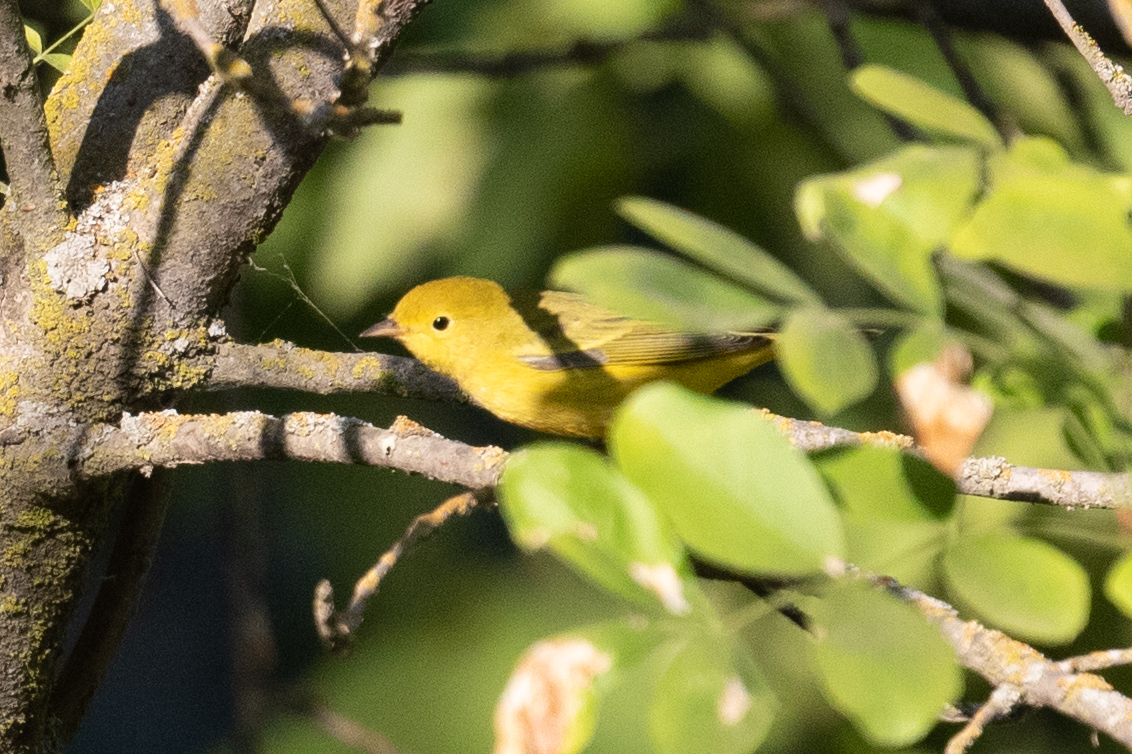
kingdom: Animalia
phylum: Chordata
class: Aves
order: Passeriformes
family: Parulidae
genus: Setophaga
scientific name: Setophaga petechia
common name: Yellow warbler
